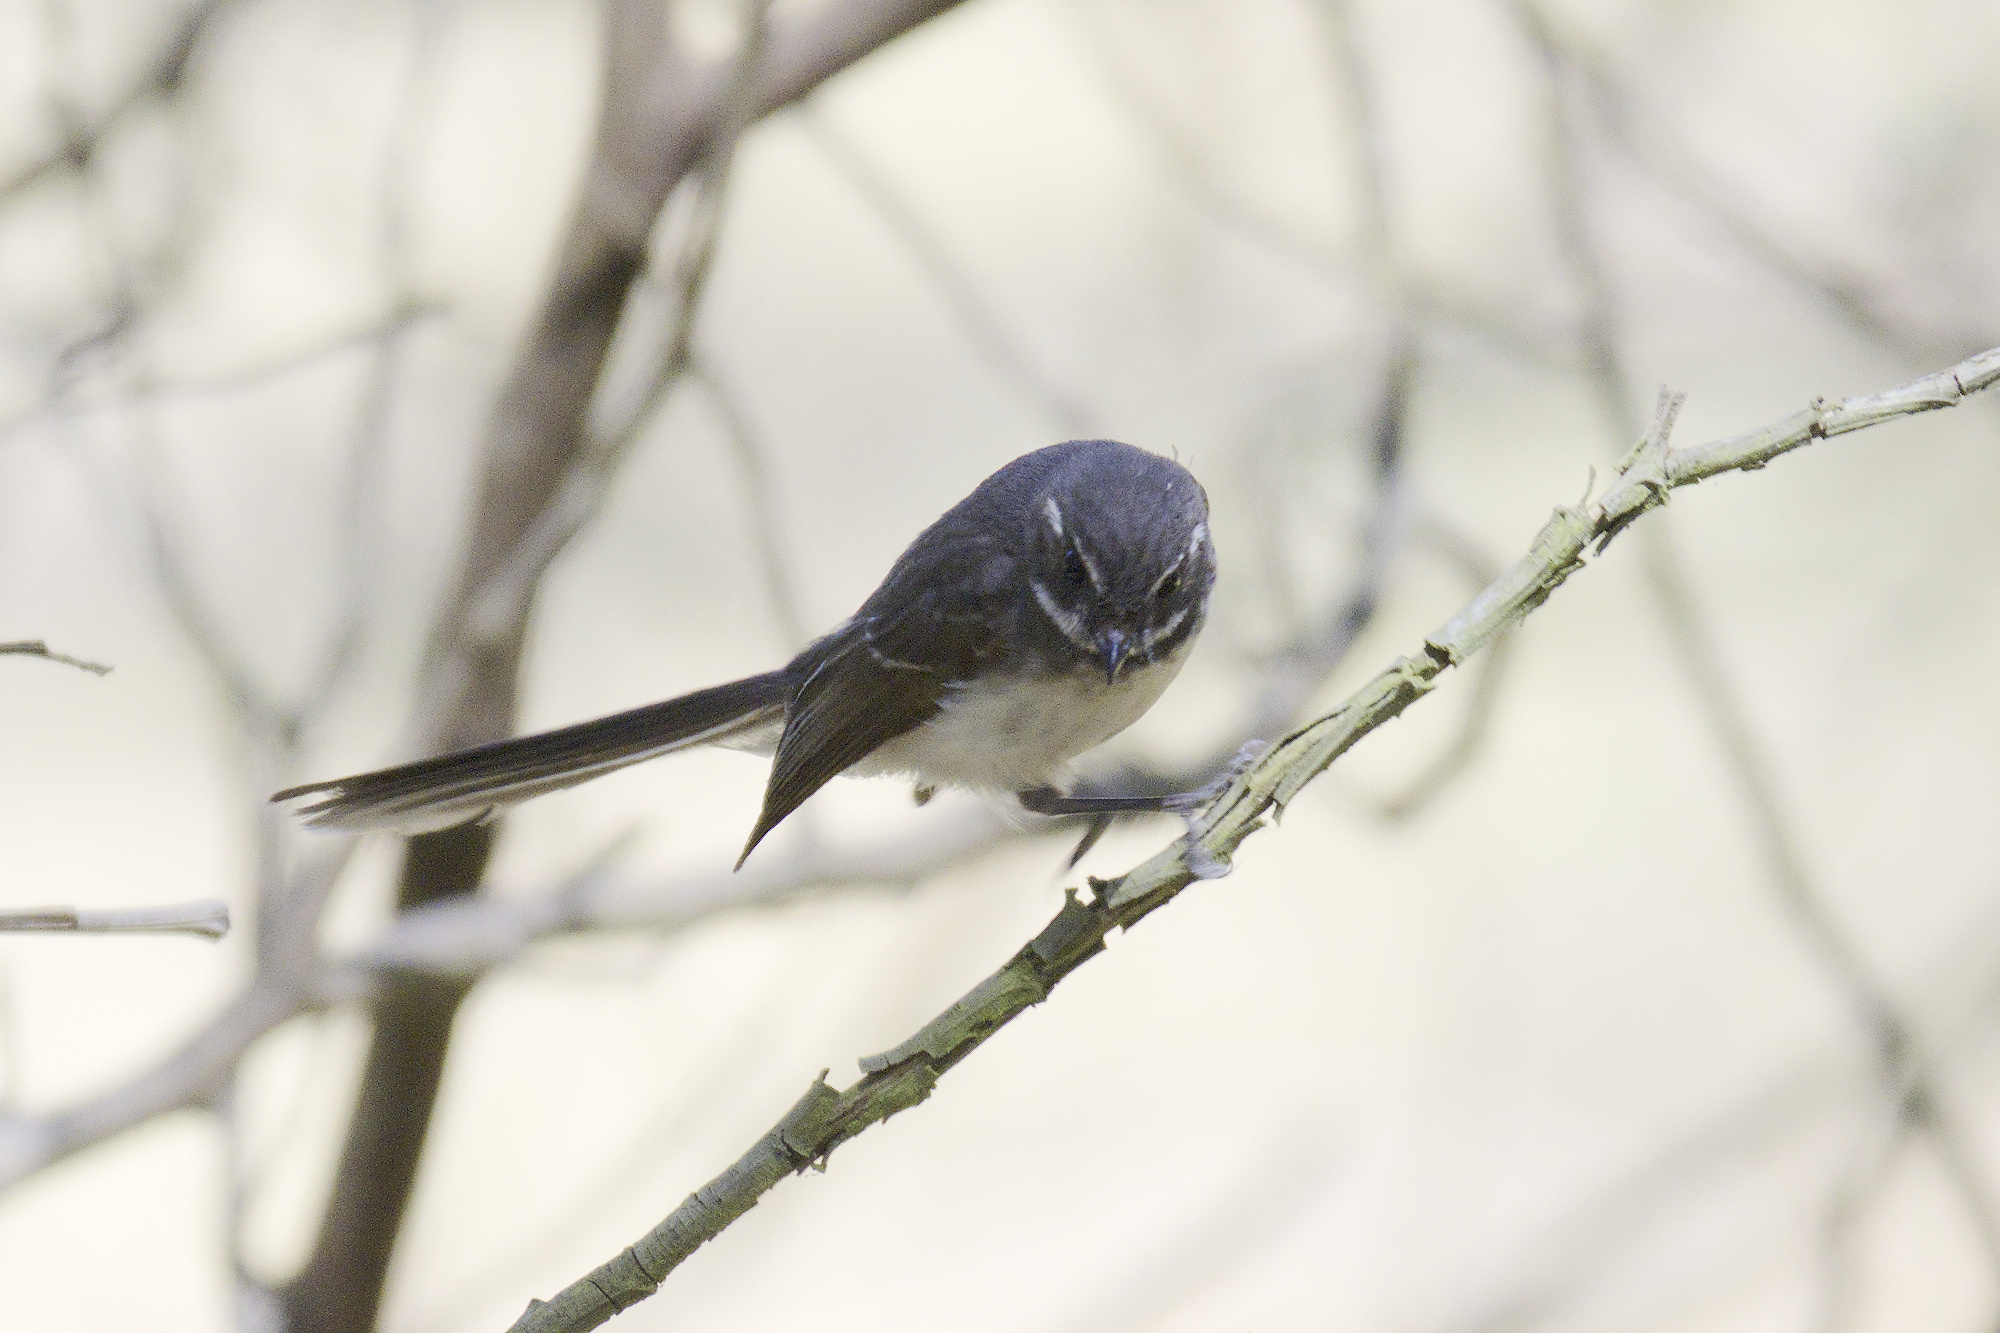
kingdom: Animalia
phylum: Chordata
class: Aves
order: Passeriformes
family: Rhipiduridae
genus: Rhipidura
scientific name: Rhipidura albiscapa
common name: Grey fantail
